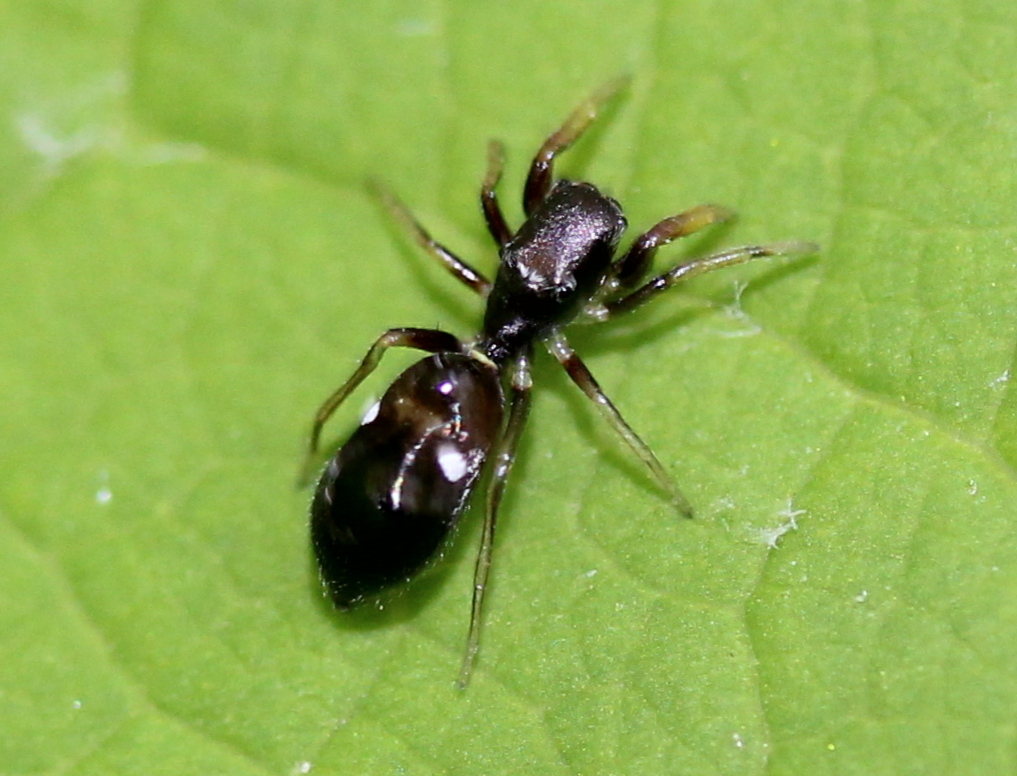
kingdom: Animalia
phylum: Arthropoda
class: Arachnida
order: Araneae
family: Salticidae
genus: Synageles
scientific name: Synageles
